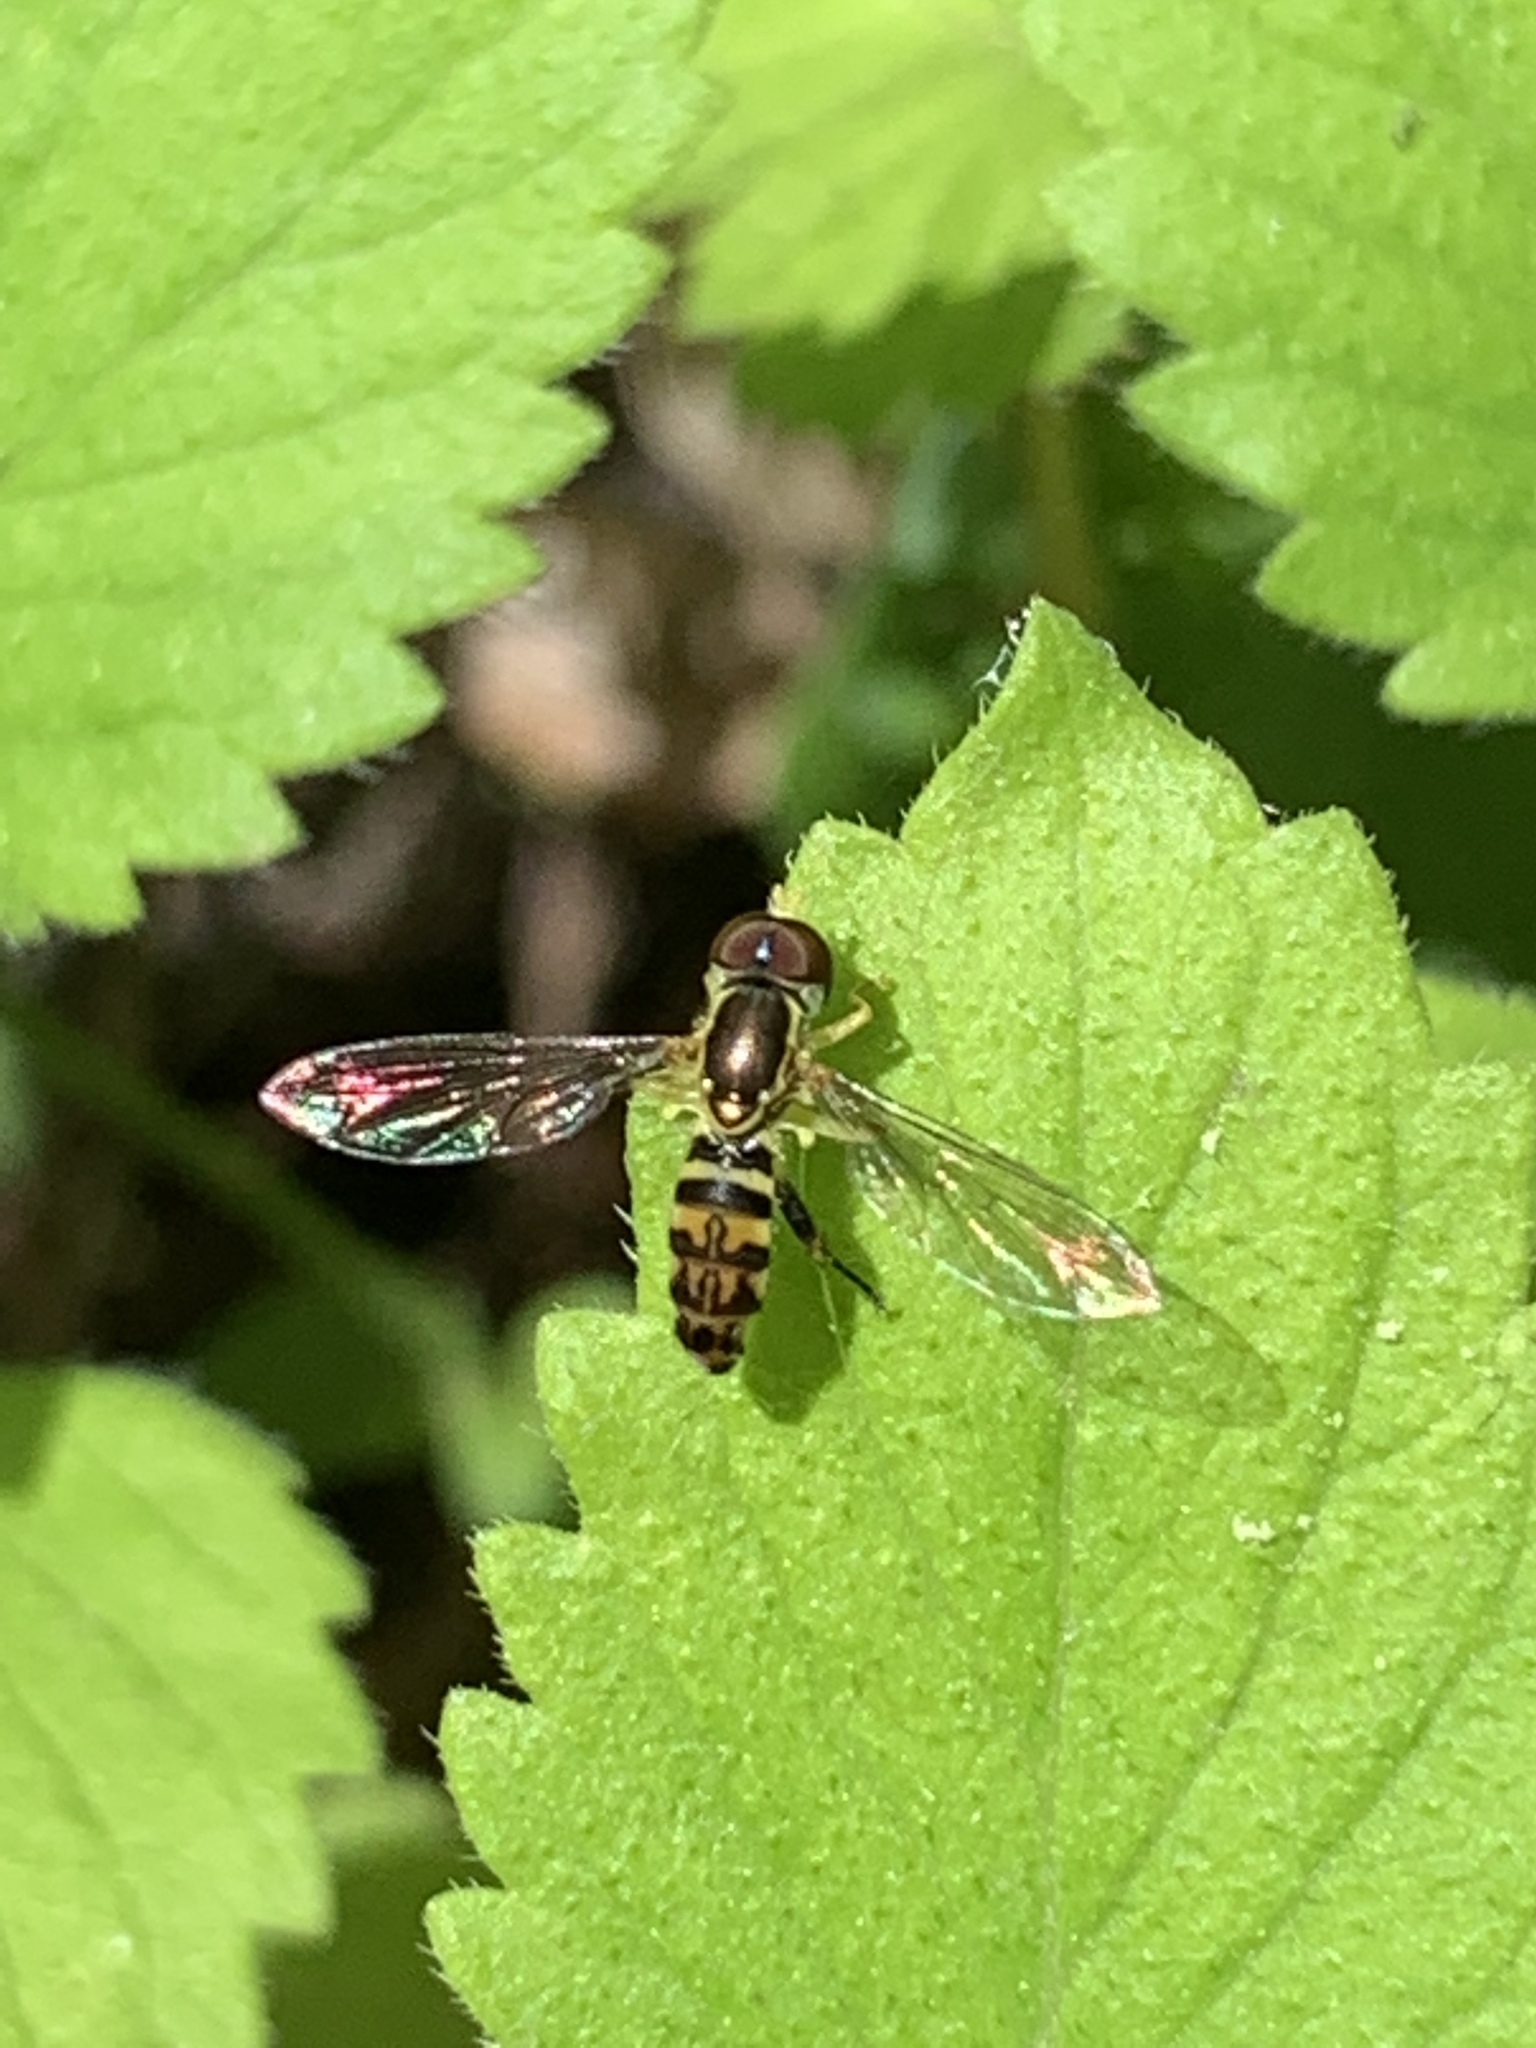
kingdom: Animalia
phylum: Arthropoda
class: Insecta
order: Diptera
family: Syrphidae
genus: Toxomerus
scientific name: Toxomerus geminatus
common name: Eastern calligrapher
